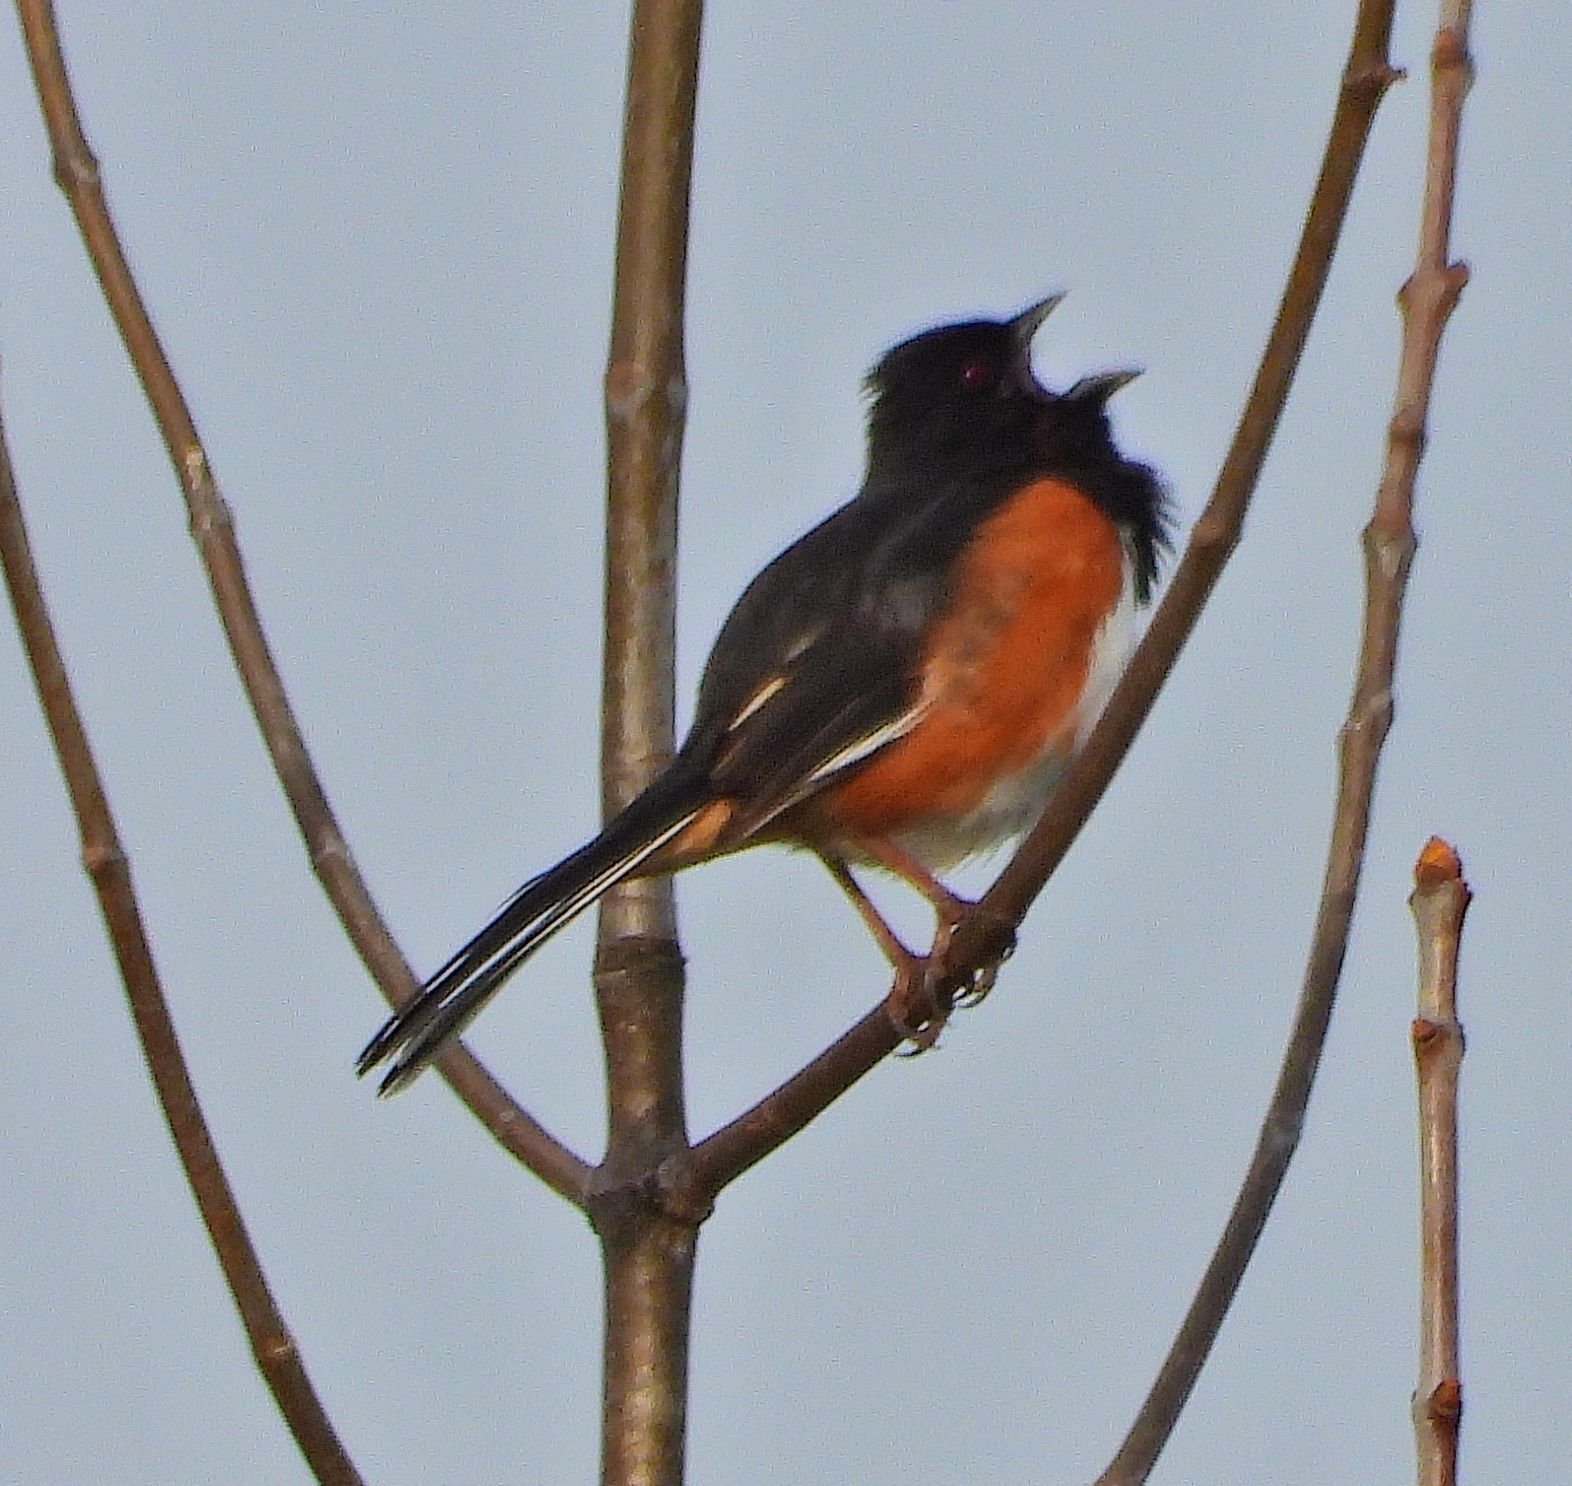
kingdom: Animalia
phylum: Chordata
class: Aves
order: Passeriformes
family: Passerellidae
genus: Pipilo
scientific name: Pipilo erythrophthalmus
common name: Eastern towhee
